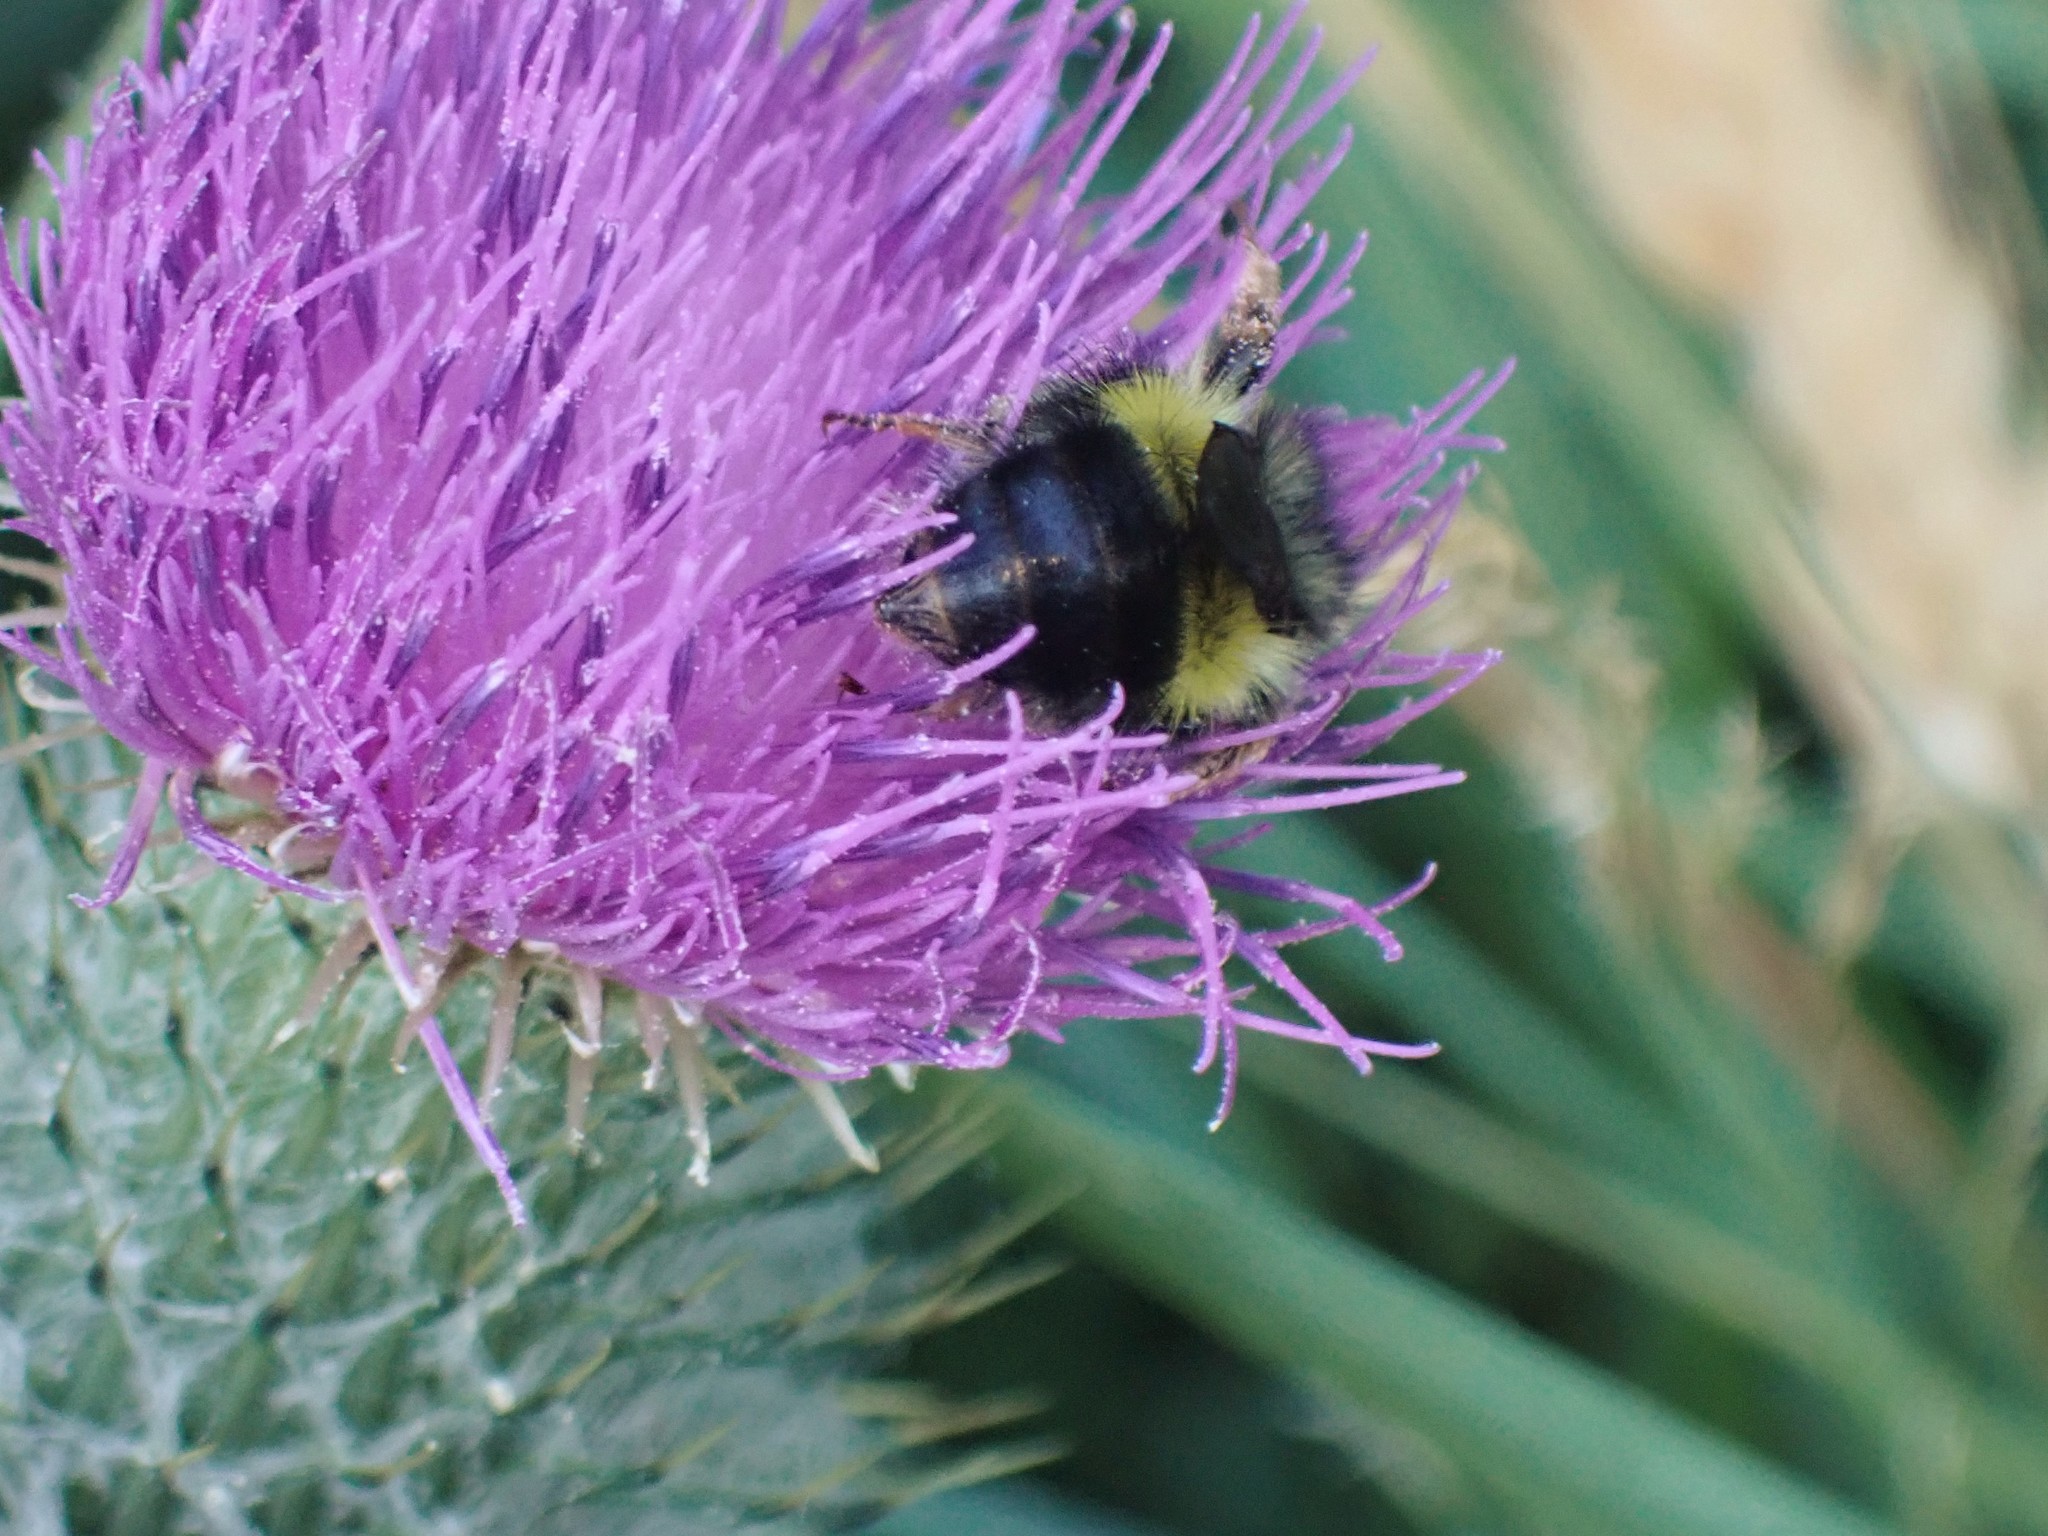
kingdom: Animalia
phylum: Arthropoda
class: Insecta
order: Hymenoptera
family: Apidae
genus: Bombus
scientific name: Bombus flavifrons
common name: Yellow head bumble bee
